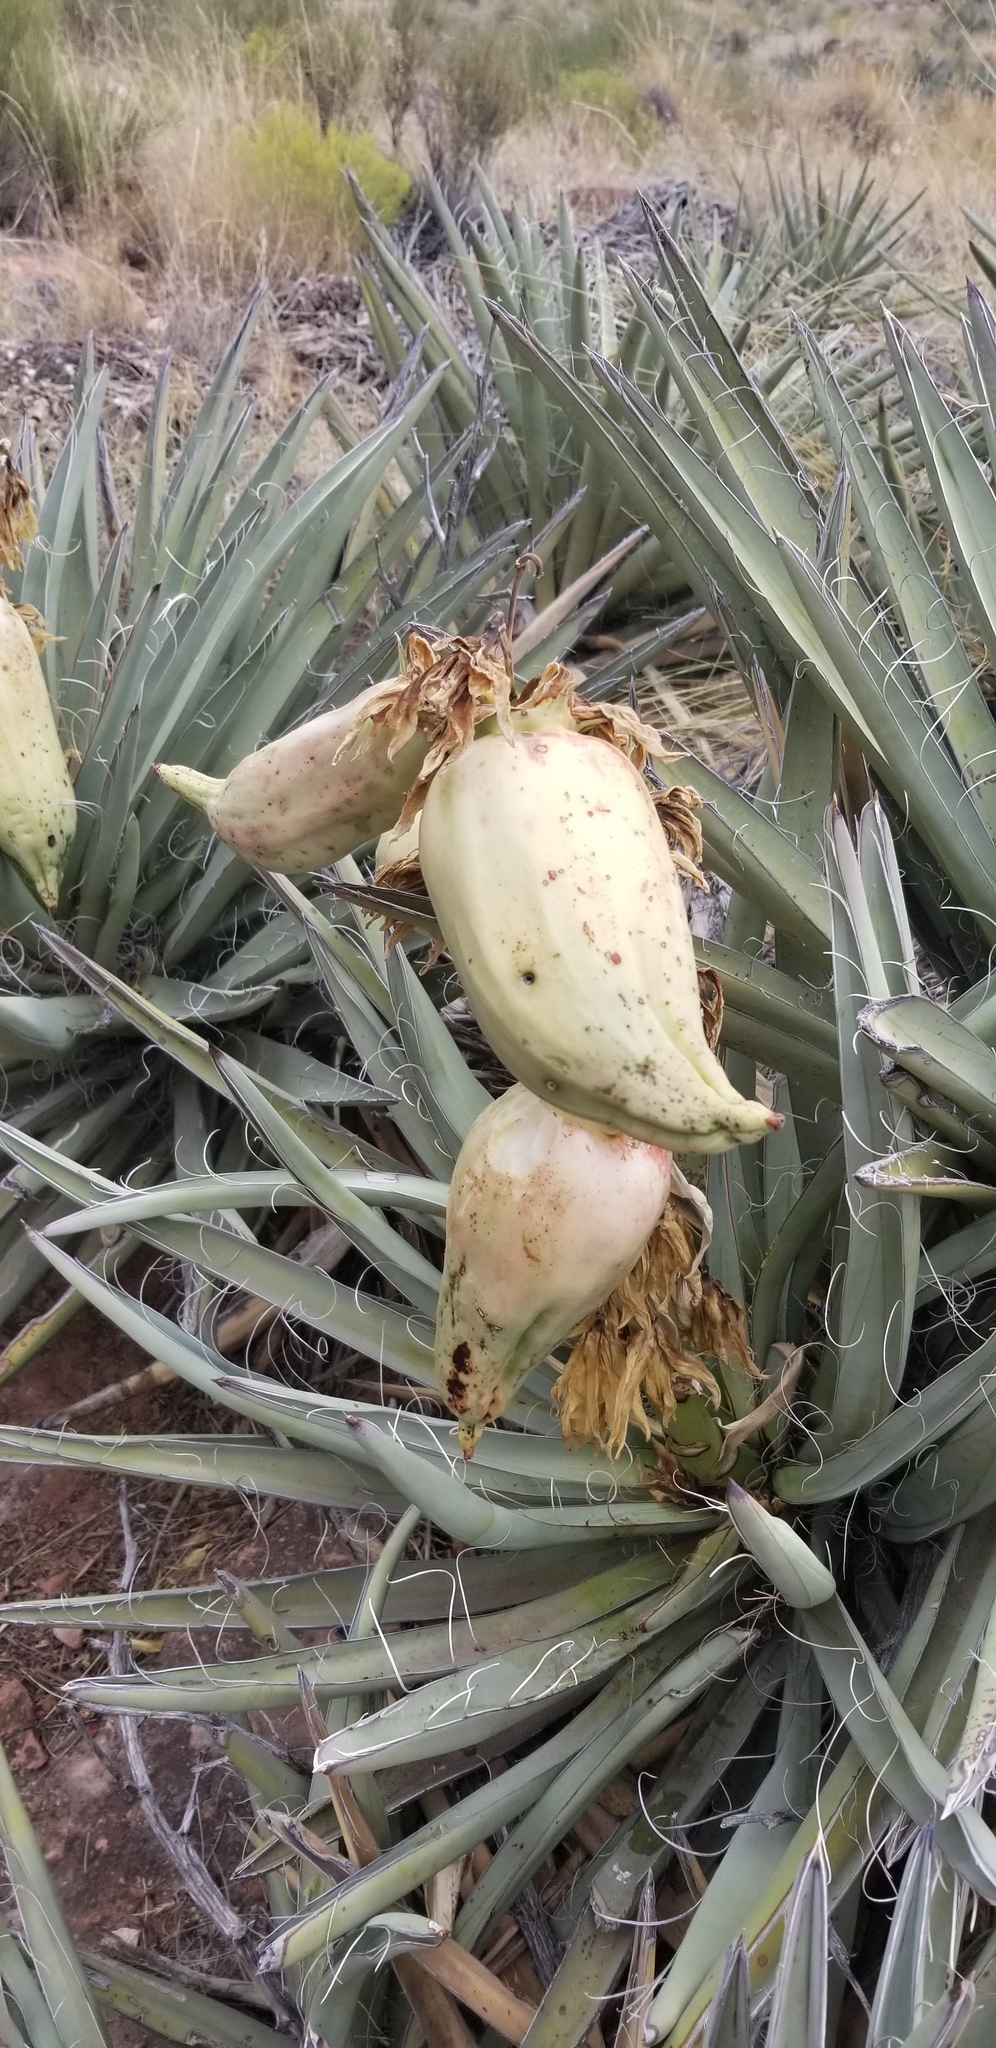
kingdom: Plantae
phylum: Tracheophyta
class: Liliopsida
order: Asparagales
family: Asparagaceae
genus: Yucca
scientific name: Yucca baccata
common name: Banana yucca
